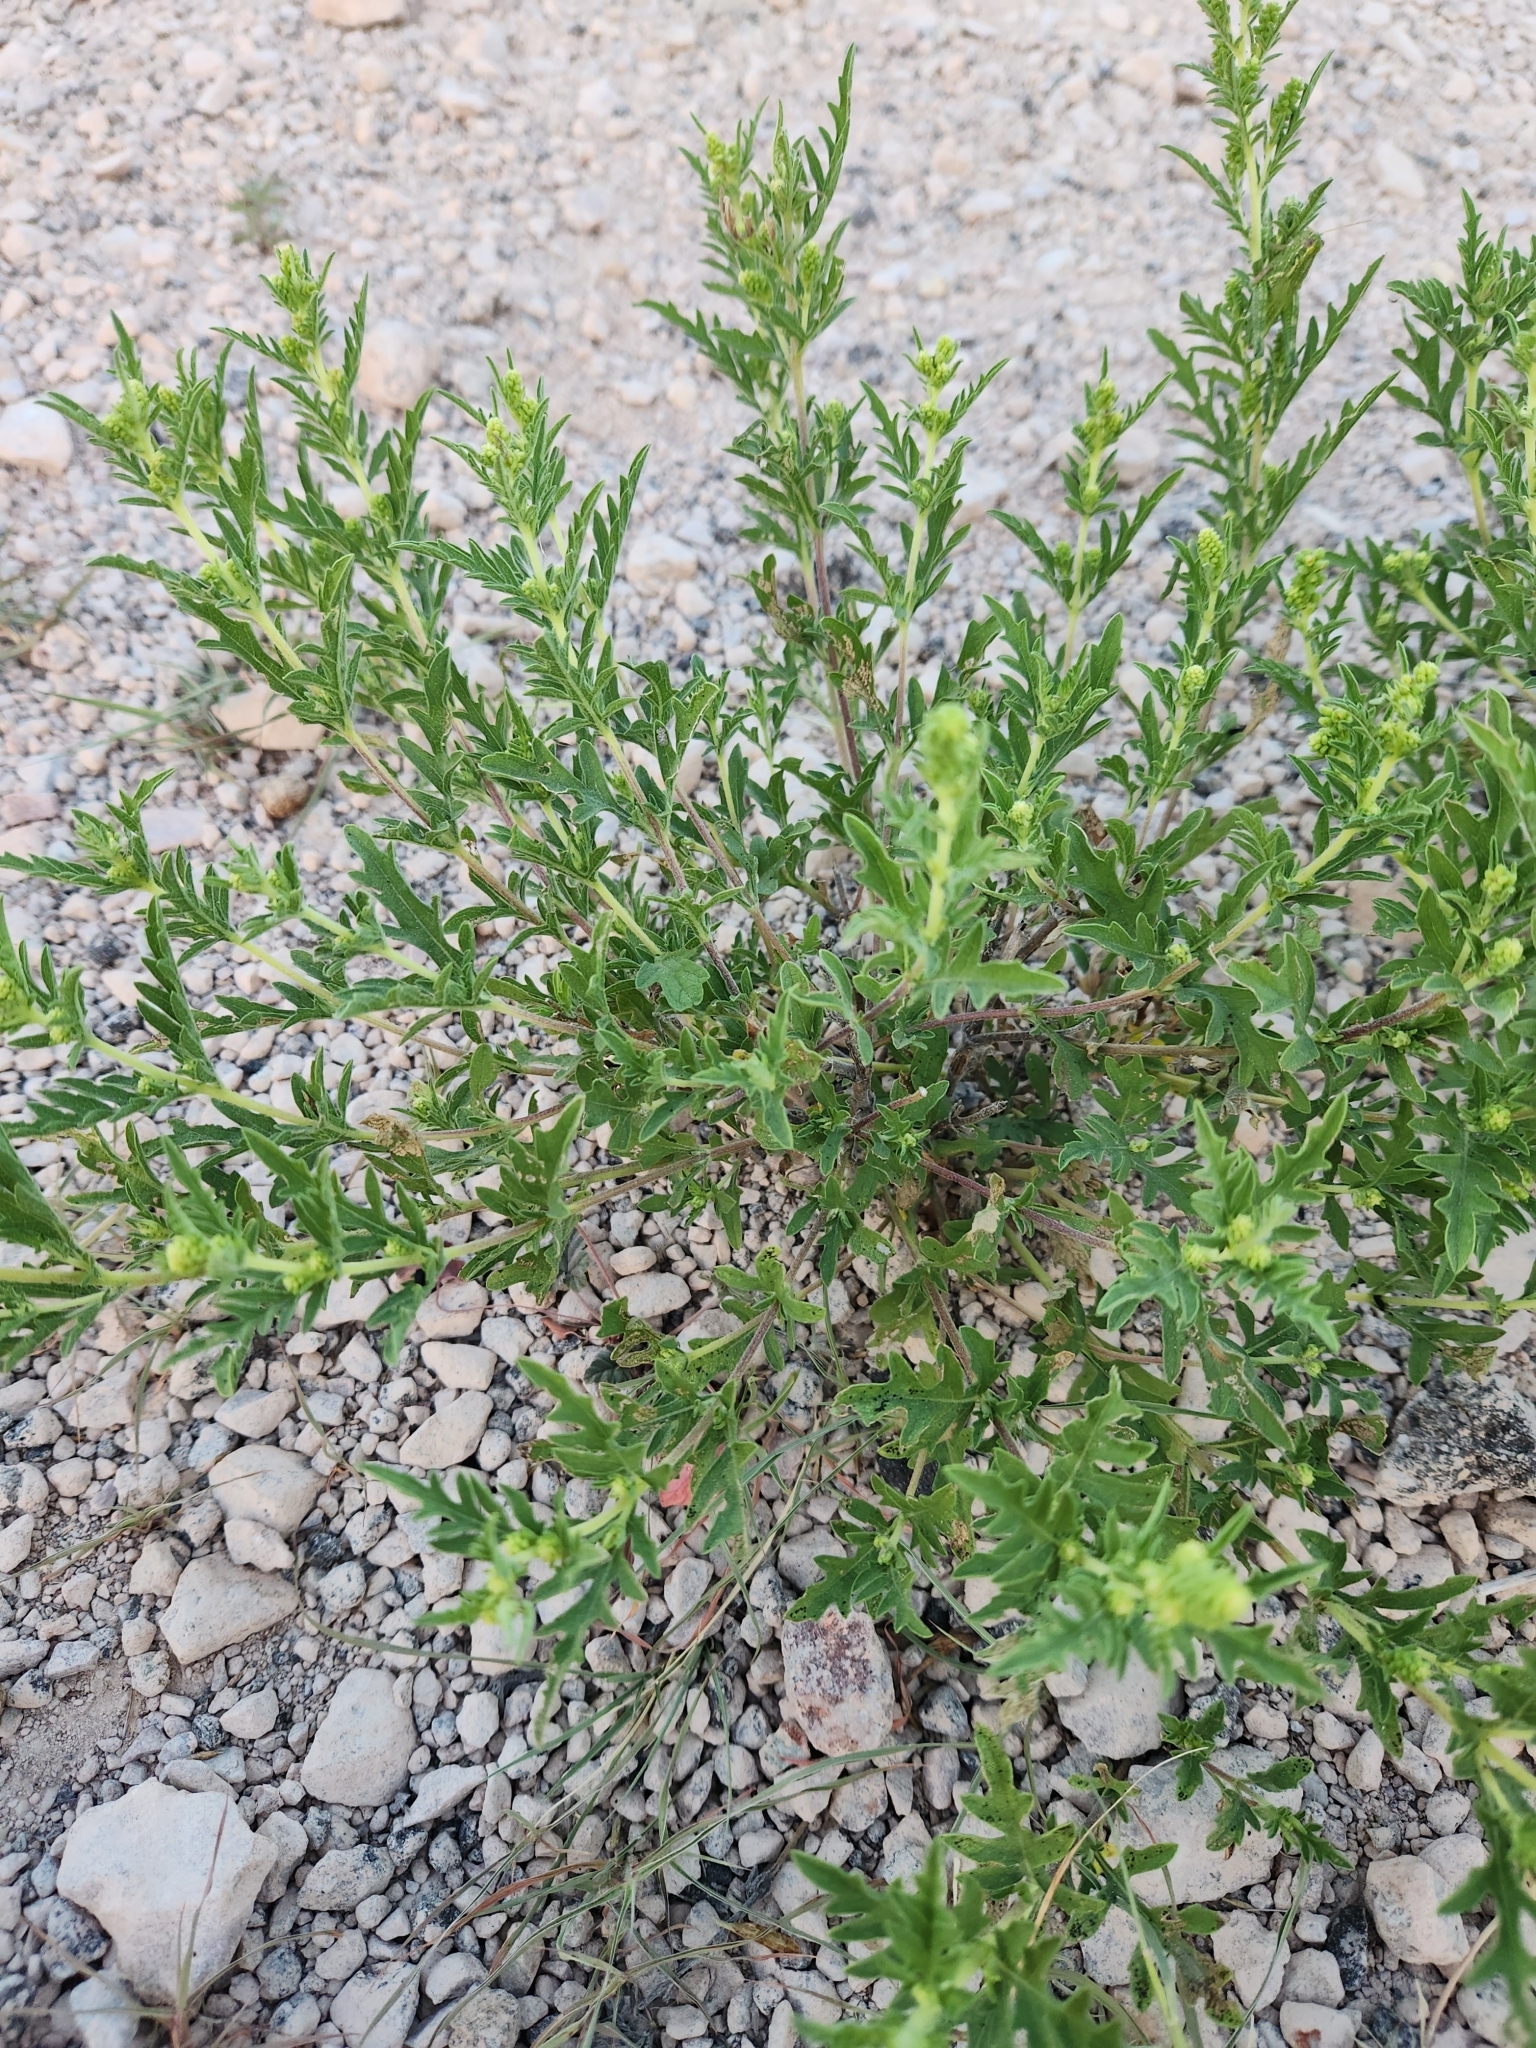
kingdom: Plantae
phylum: Tracheophyta
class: Magnoliopsida
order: Asterales
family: Asteraceae
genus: Ambrosia
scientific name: Ambrosia psilostachya
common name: Perennial ragweed
